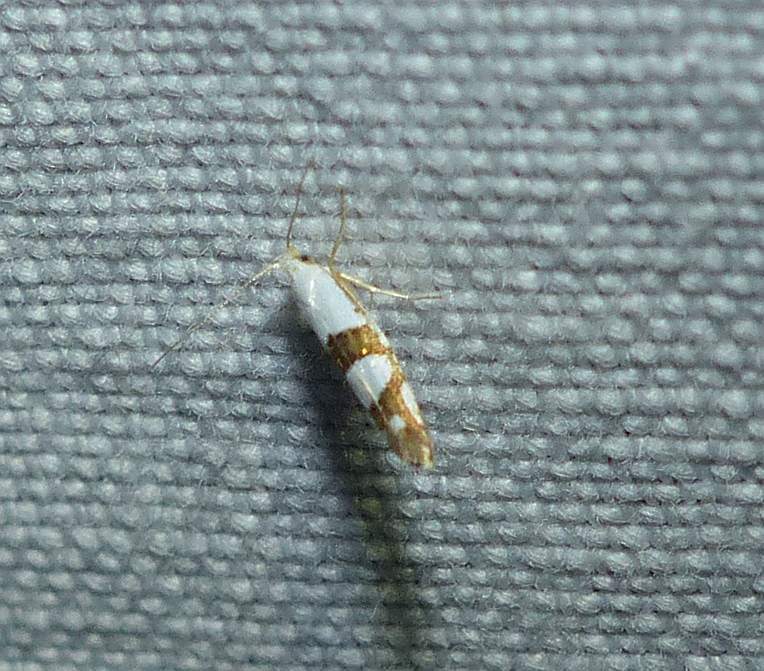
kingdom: Animalia
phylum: Arthropoda
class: Insecta
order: Lepidoptera
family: Argyresthiidae
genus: Argyresthia
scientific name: Argyresthia oreasella
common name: Cherry shoot borer moth
